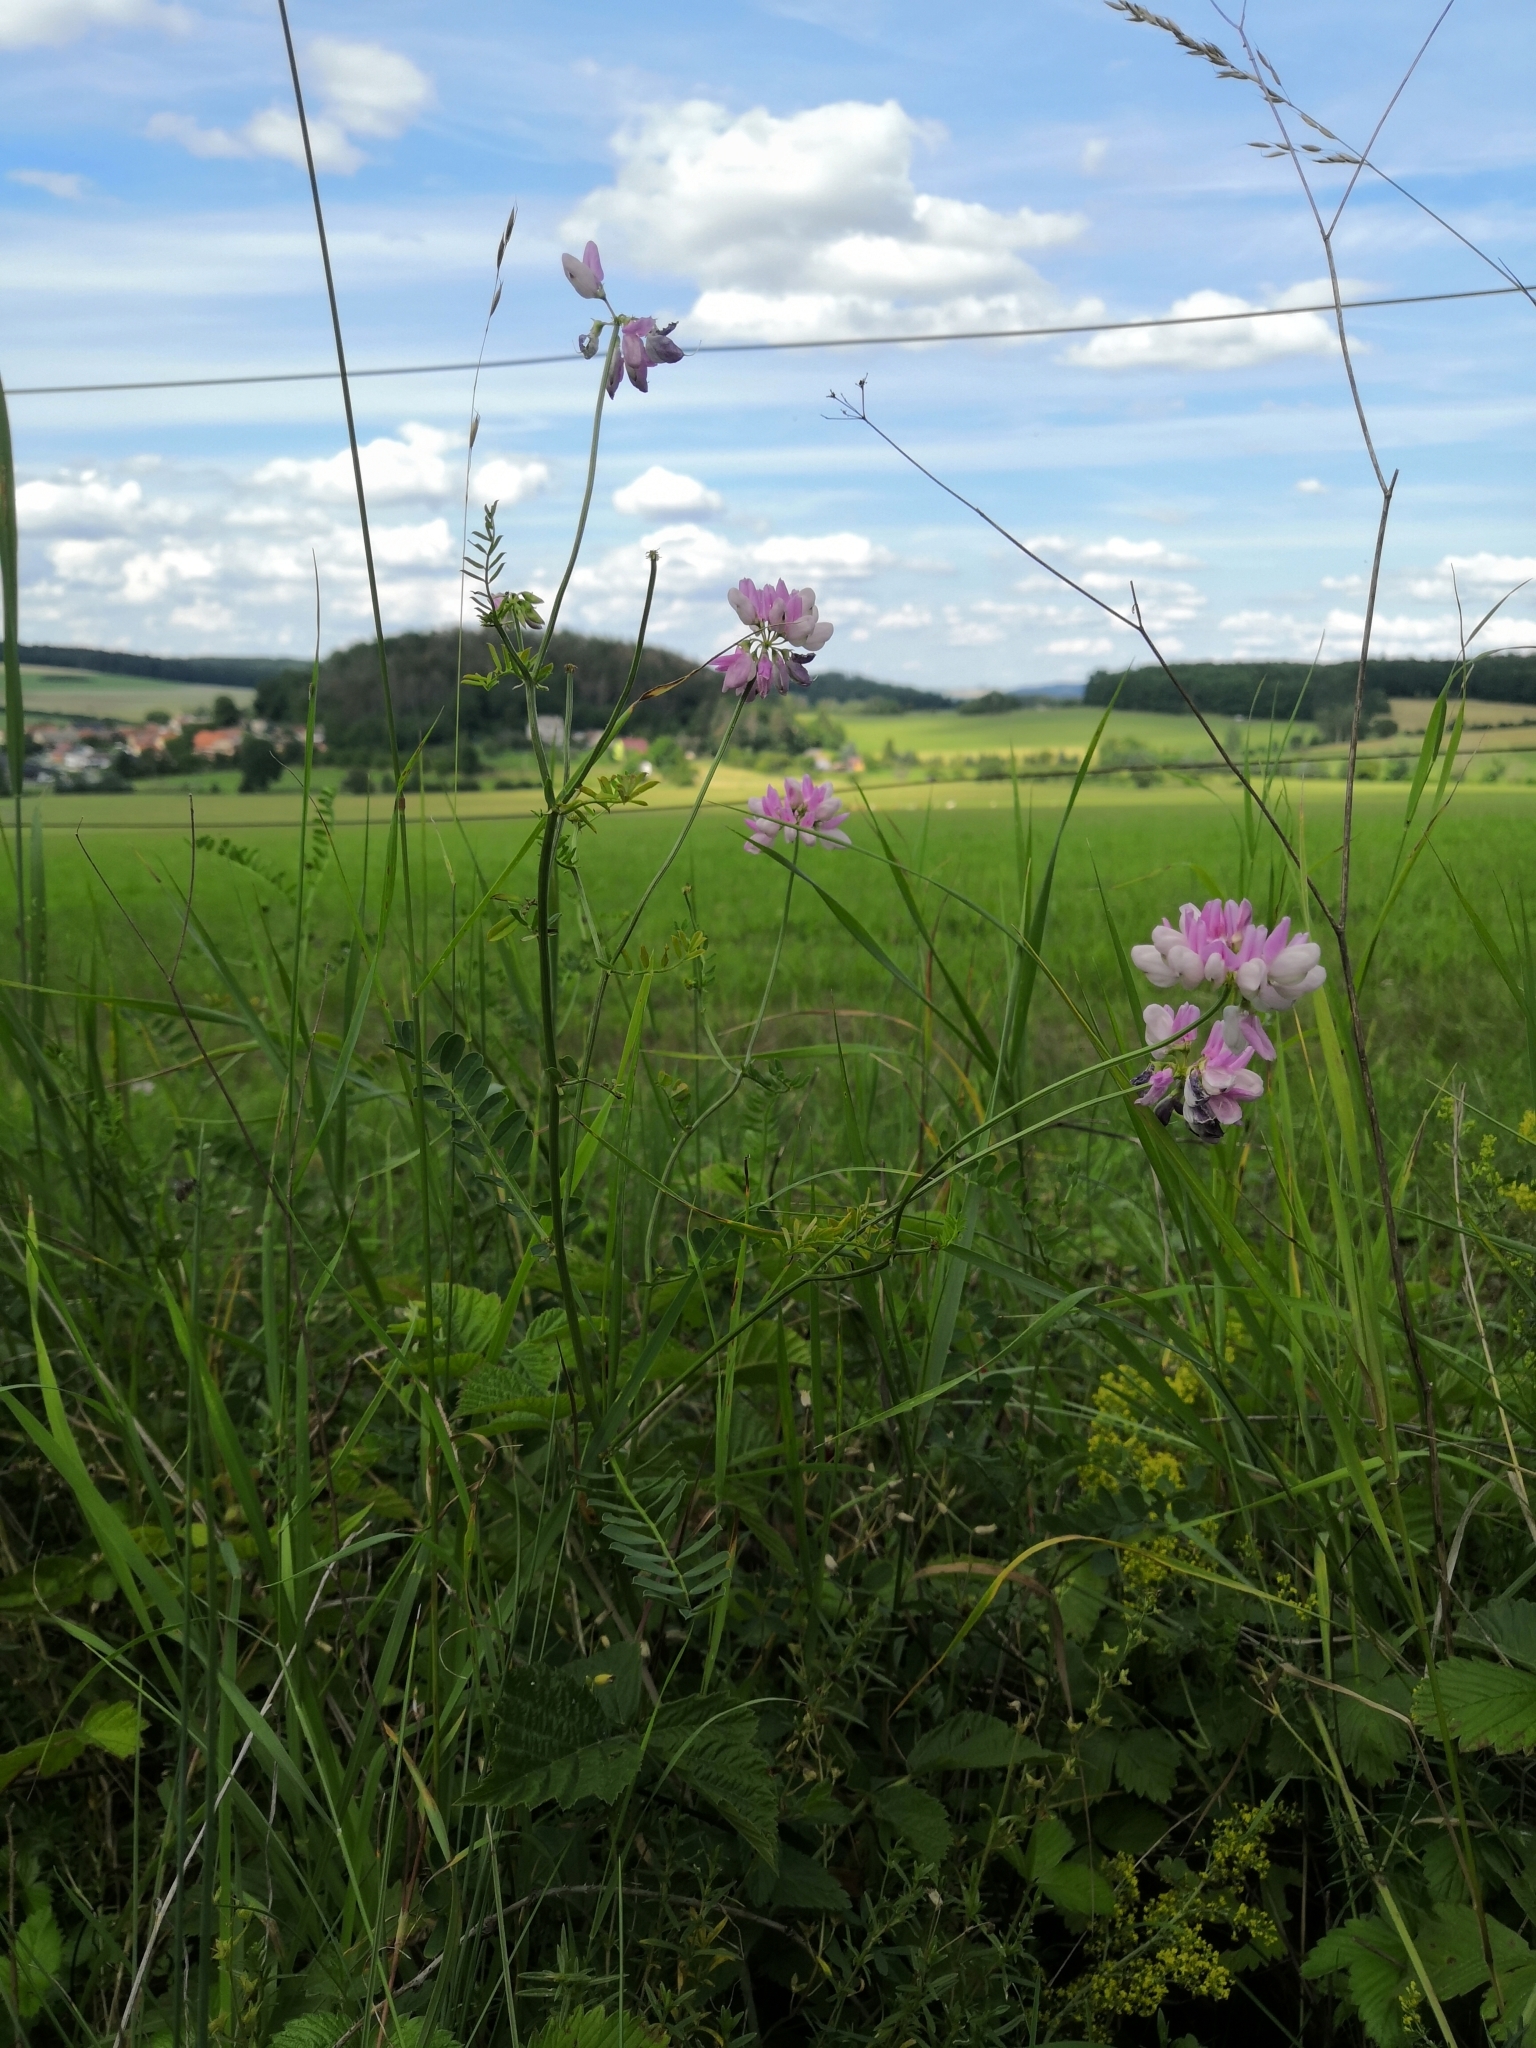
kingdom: Plantae
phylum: Tracheophyta
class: Magnoliopsida
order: Fabales
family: Fabaceae
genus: Coronilla
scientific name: Coronilla varia
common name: Crownvetch
